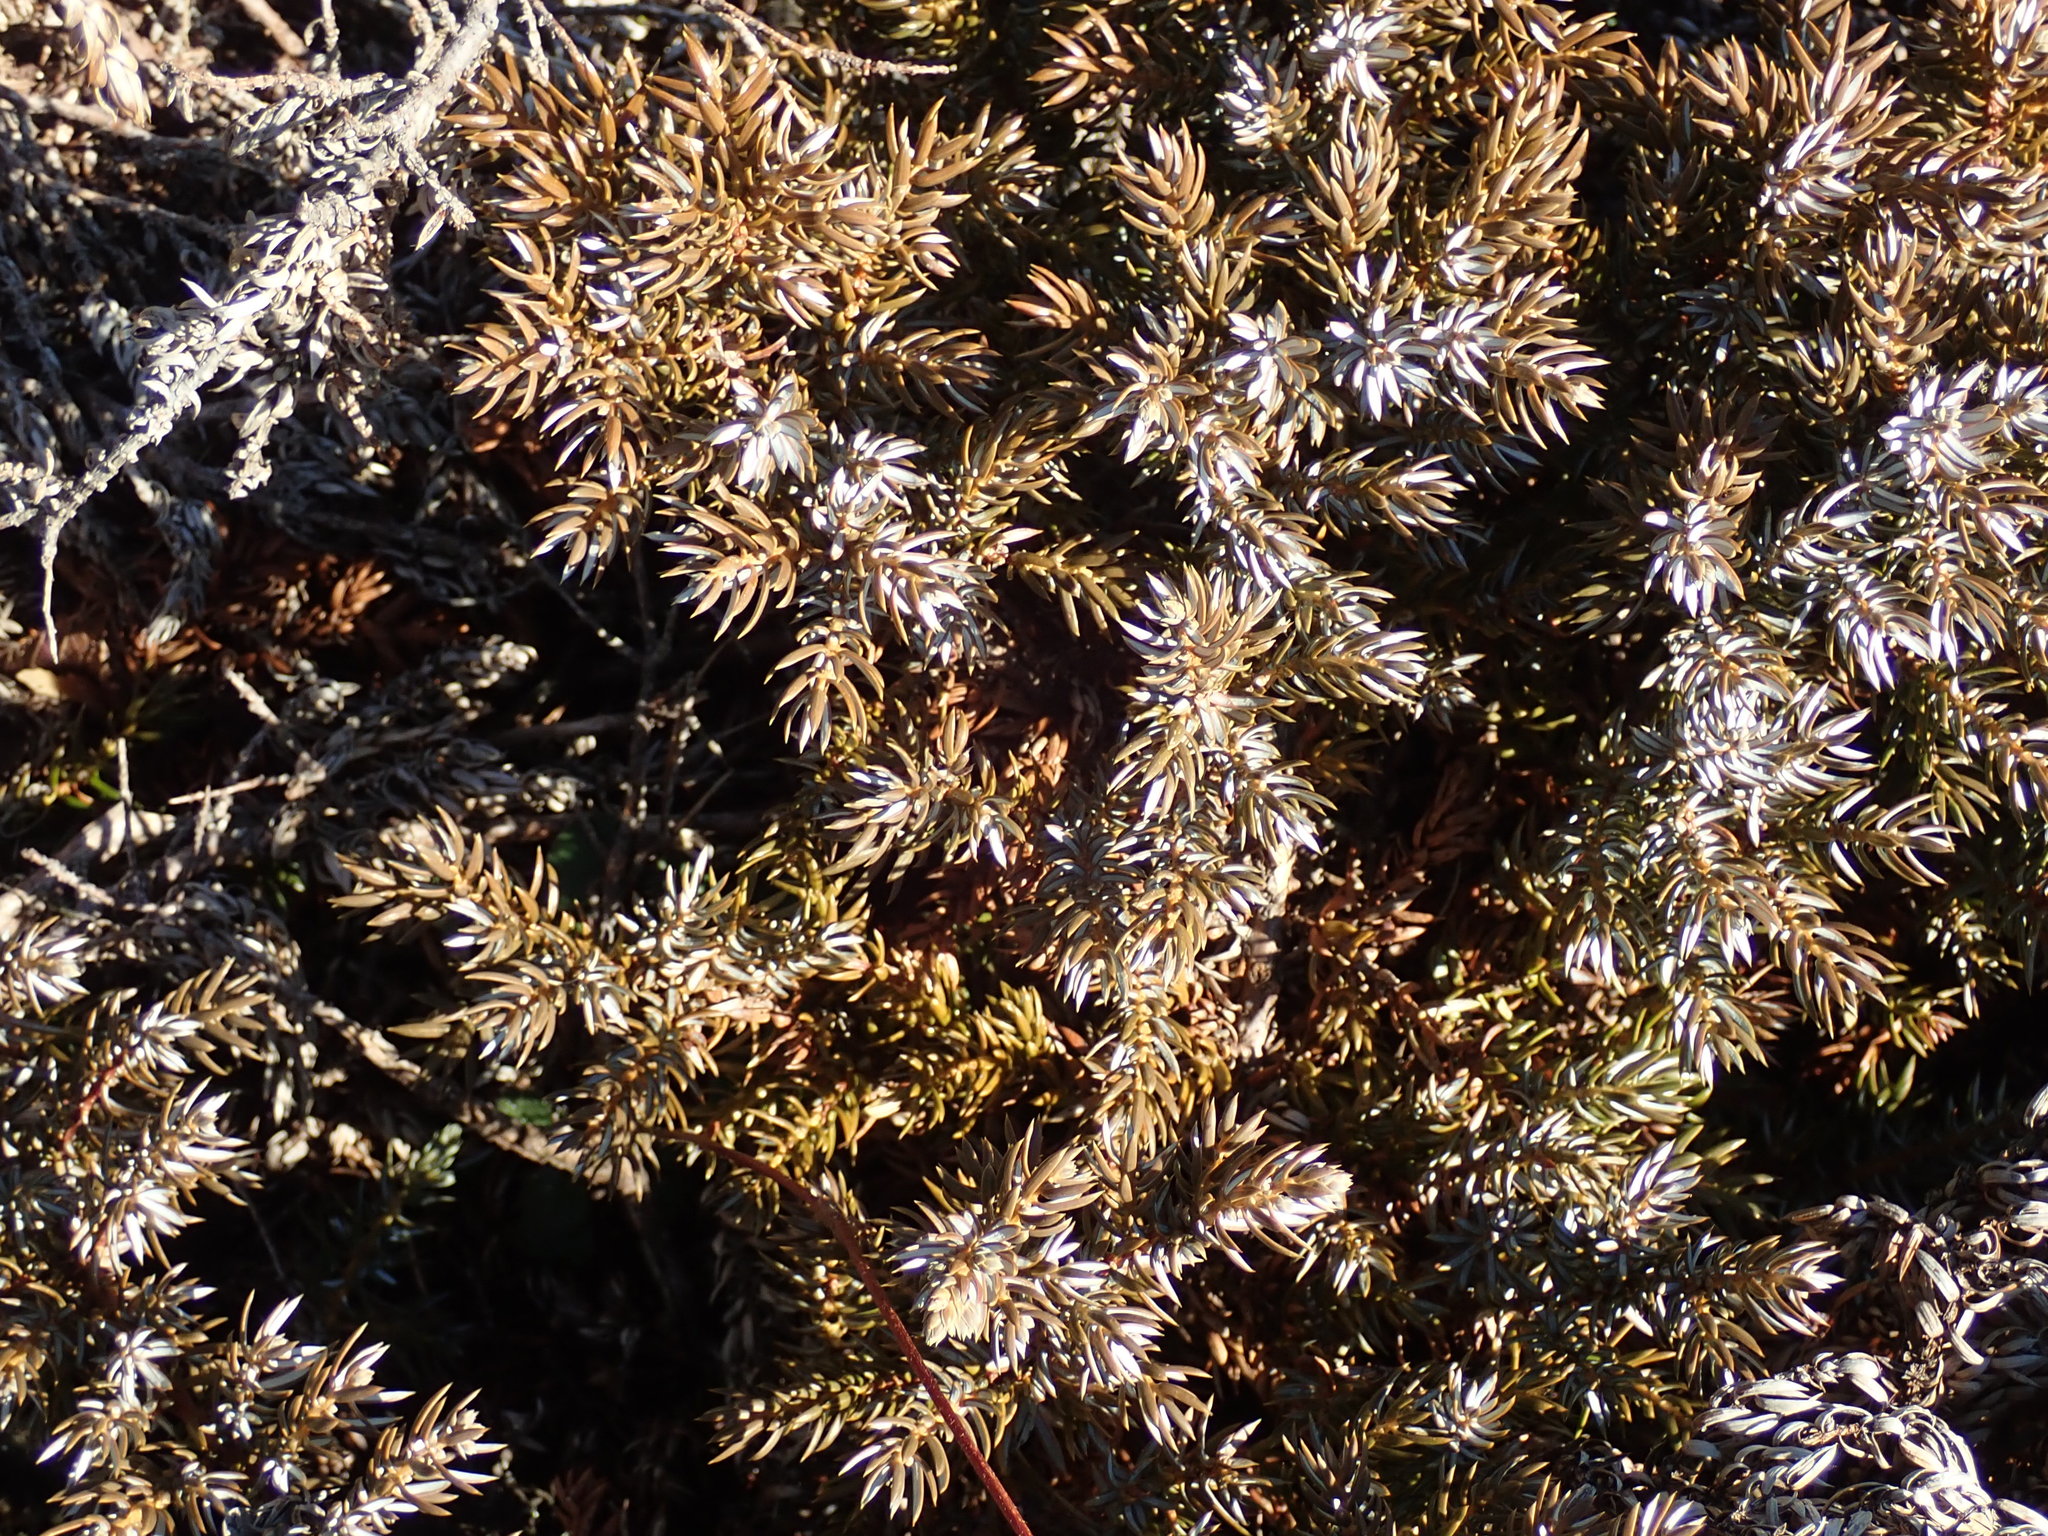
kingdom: Plantae
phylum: Tracheophyta
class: Pinopsida
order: Pinales
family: Cupressaceae
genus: Juniperus
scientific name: Juniperus communis
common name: Common juniper
